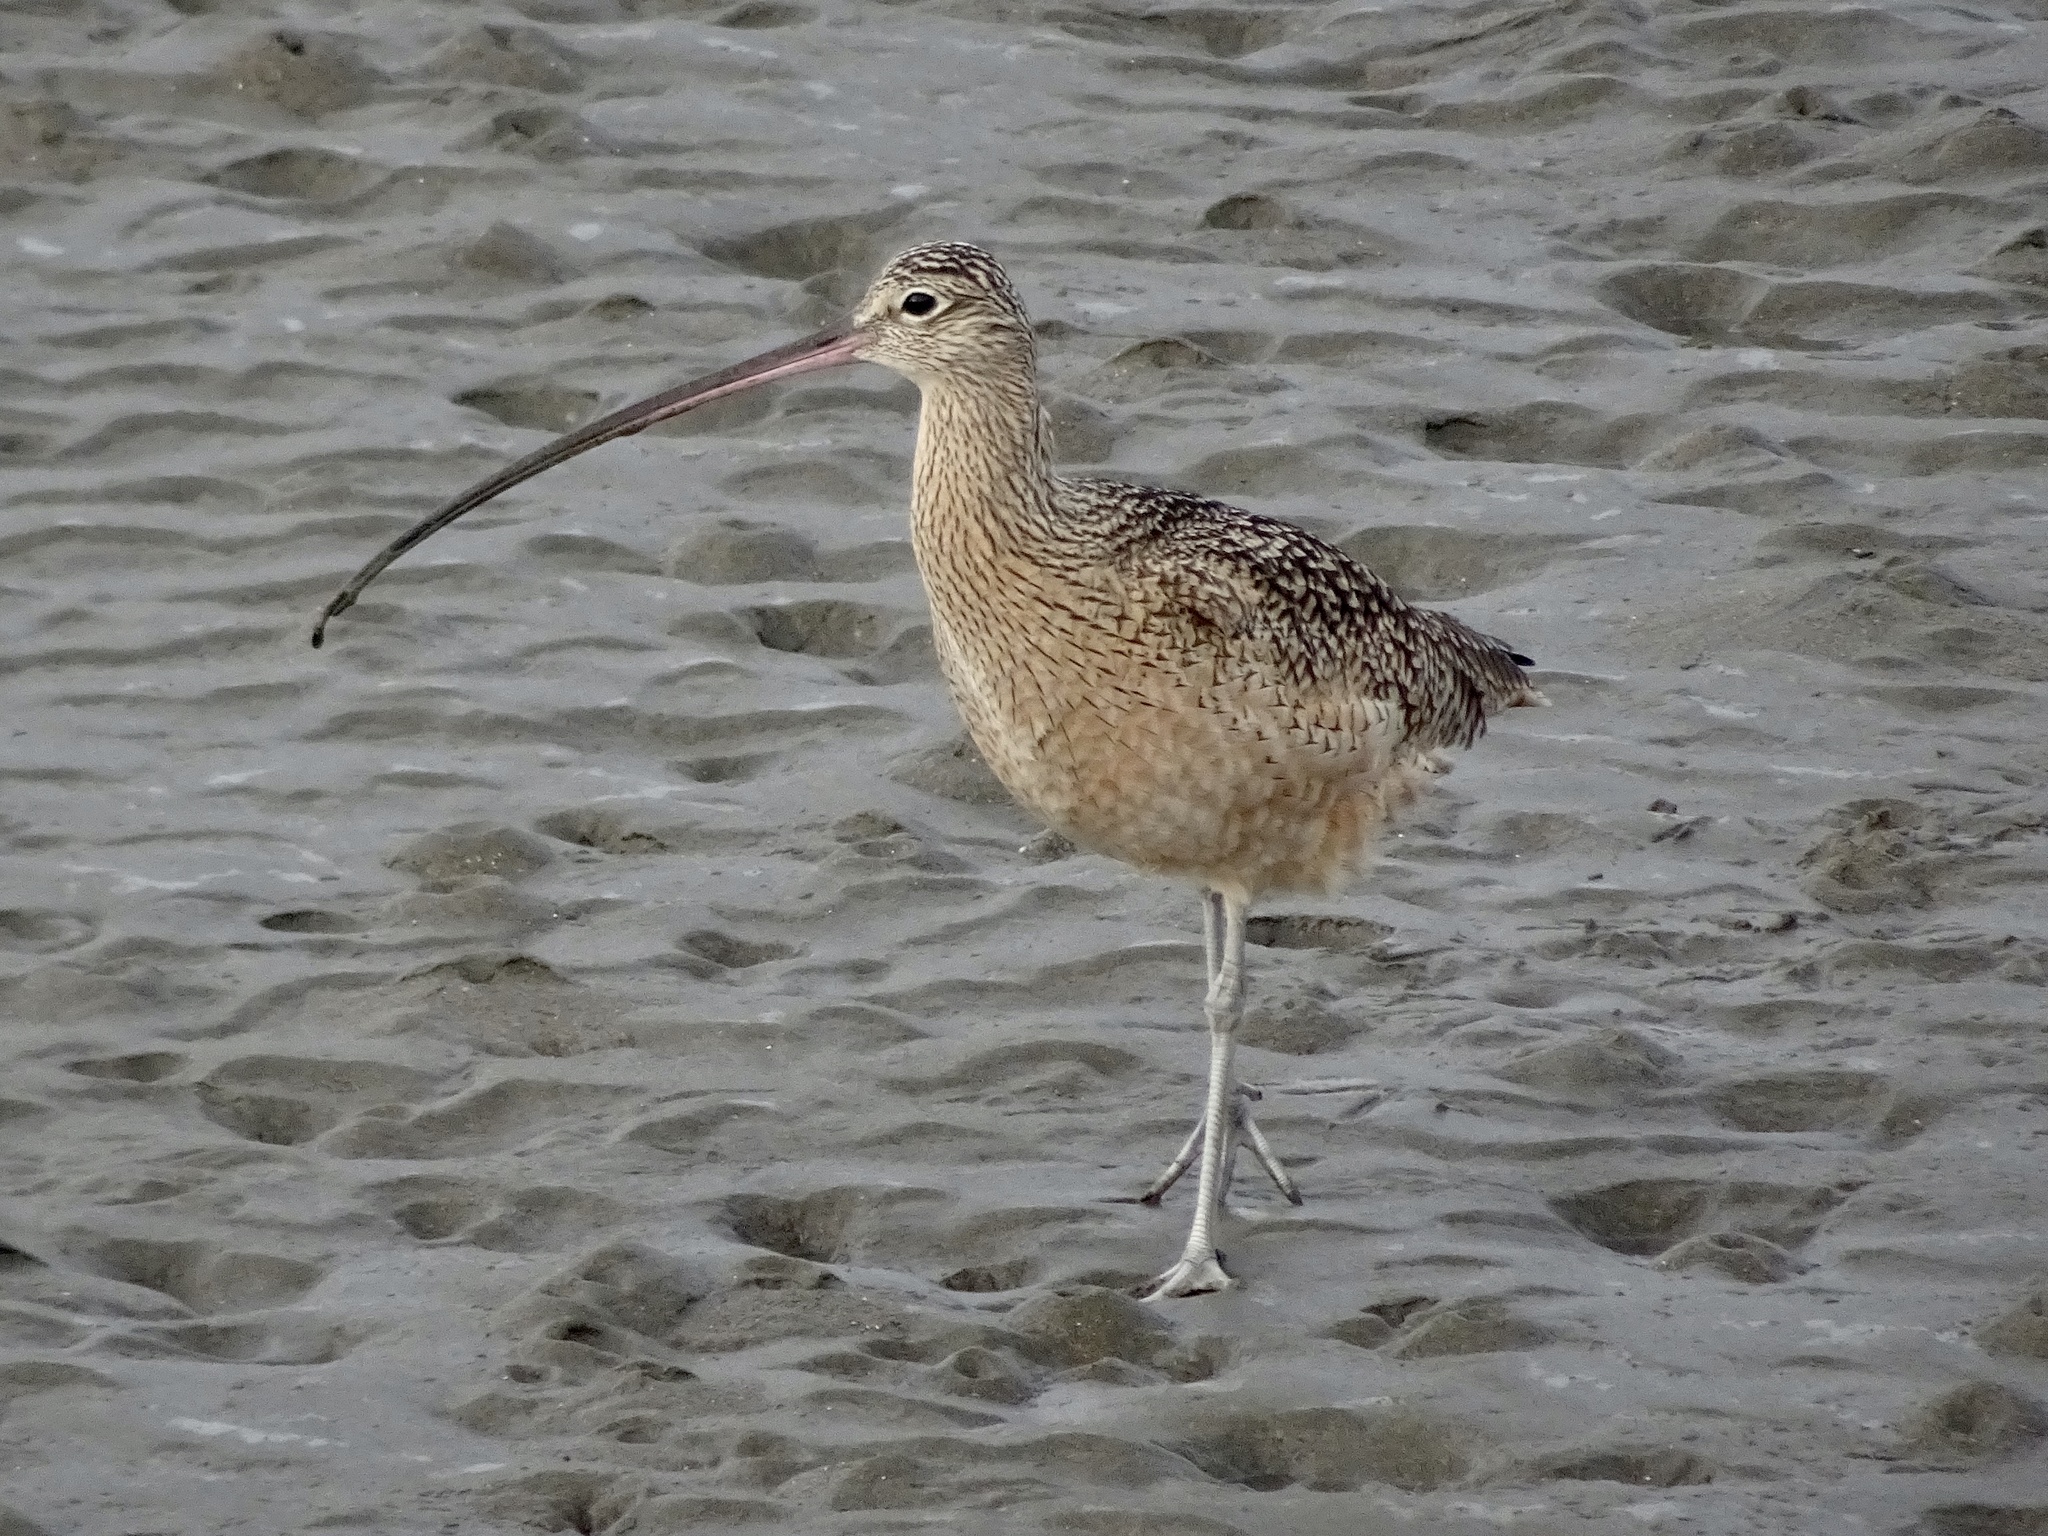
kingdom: Animalia
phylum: Chordata
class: Aves
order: Charadriiformes
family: Scolopacidae
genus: Numenius
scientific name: Numenius americanus
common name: Long-billed curlew
